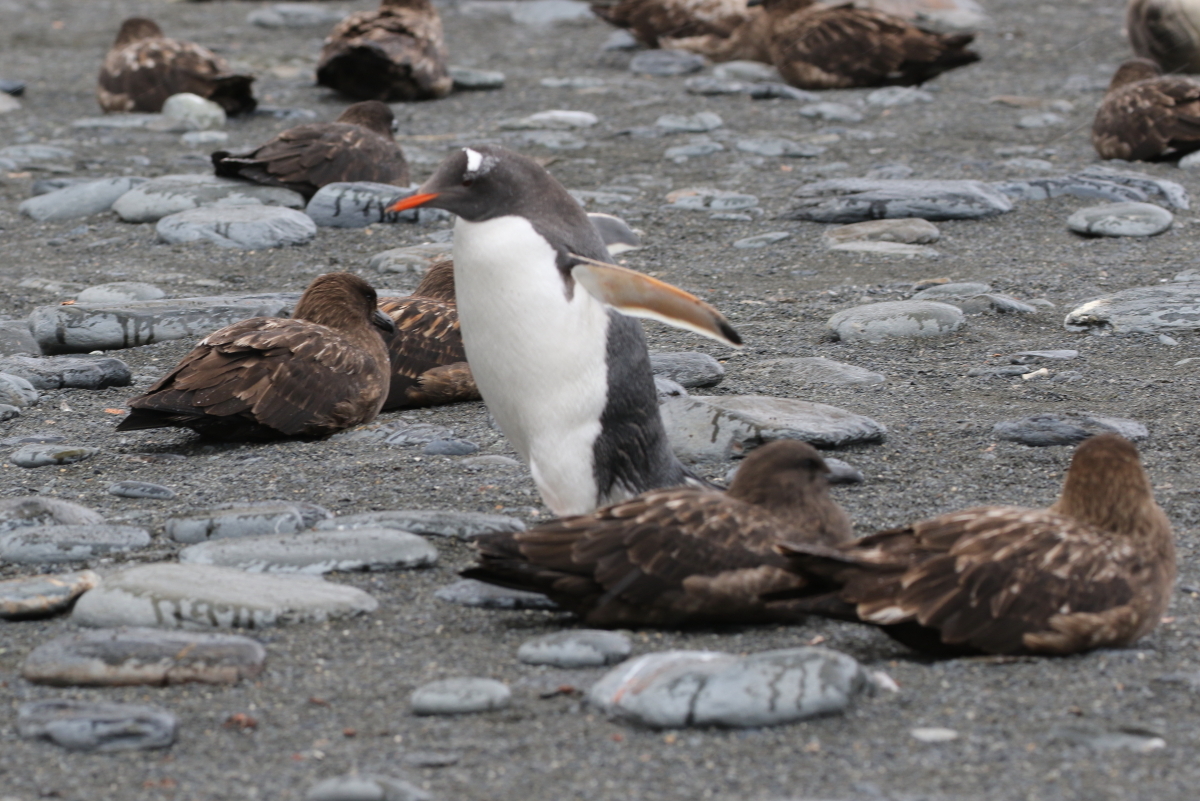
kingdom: Animalia
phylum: Chordata
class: Aves
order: Sphenisciformes
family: Spheniscidae
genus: Pygoscelis
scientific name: Pygoscelis papua
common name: Gentoo penguin
